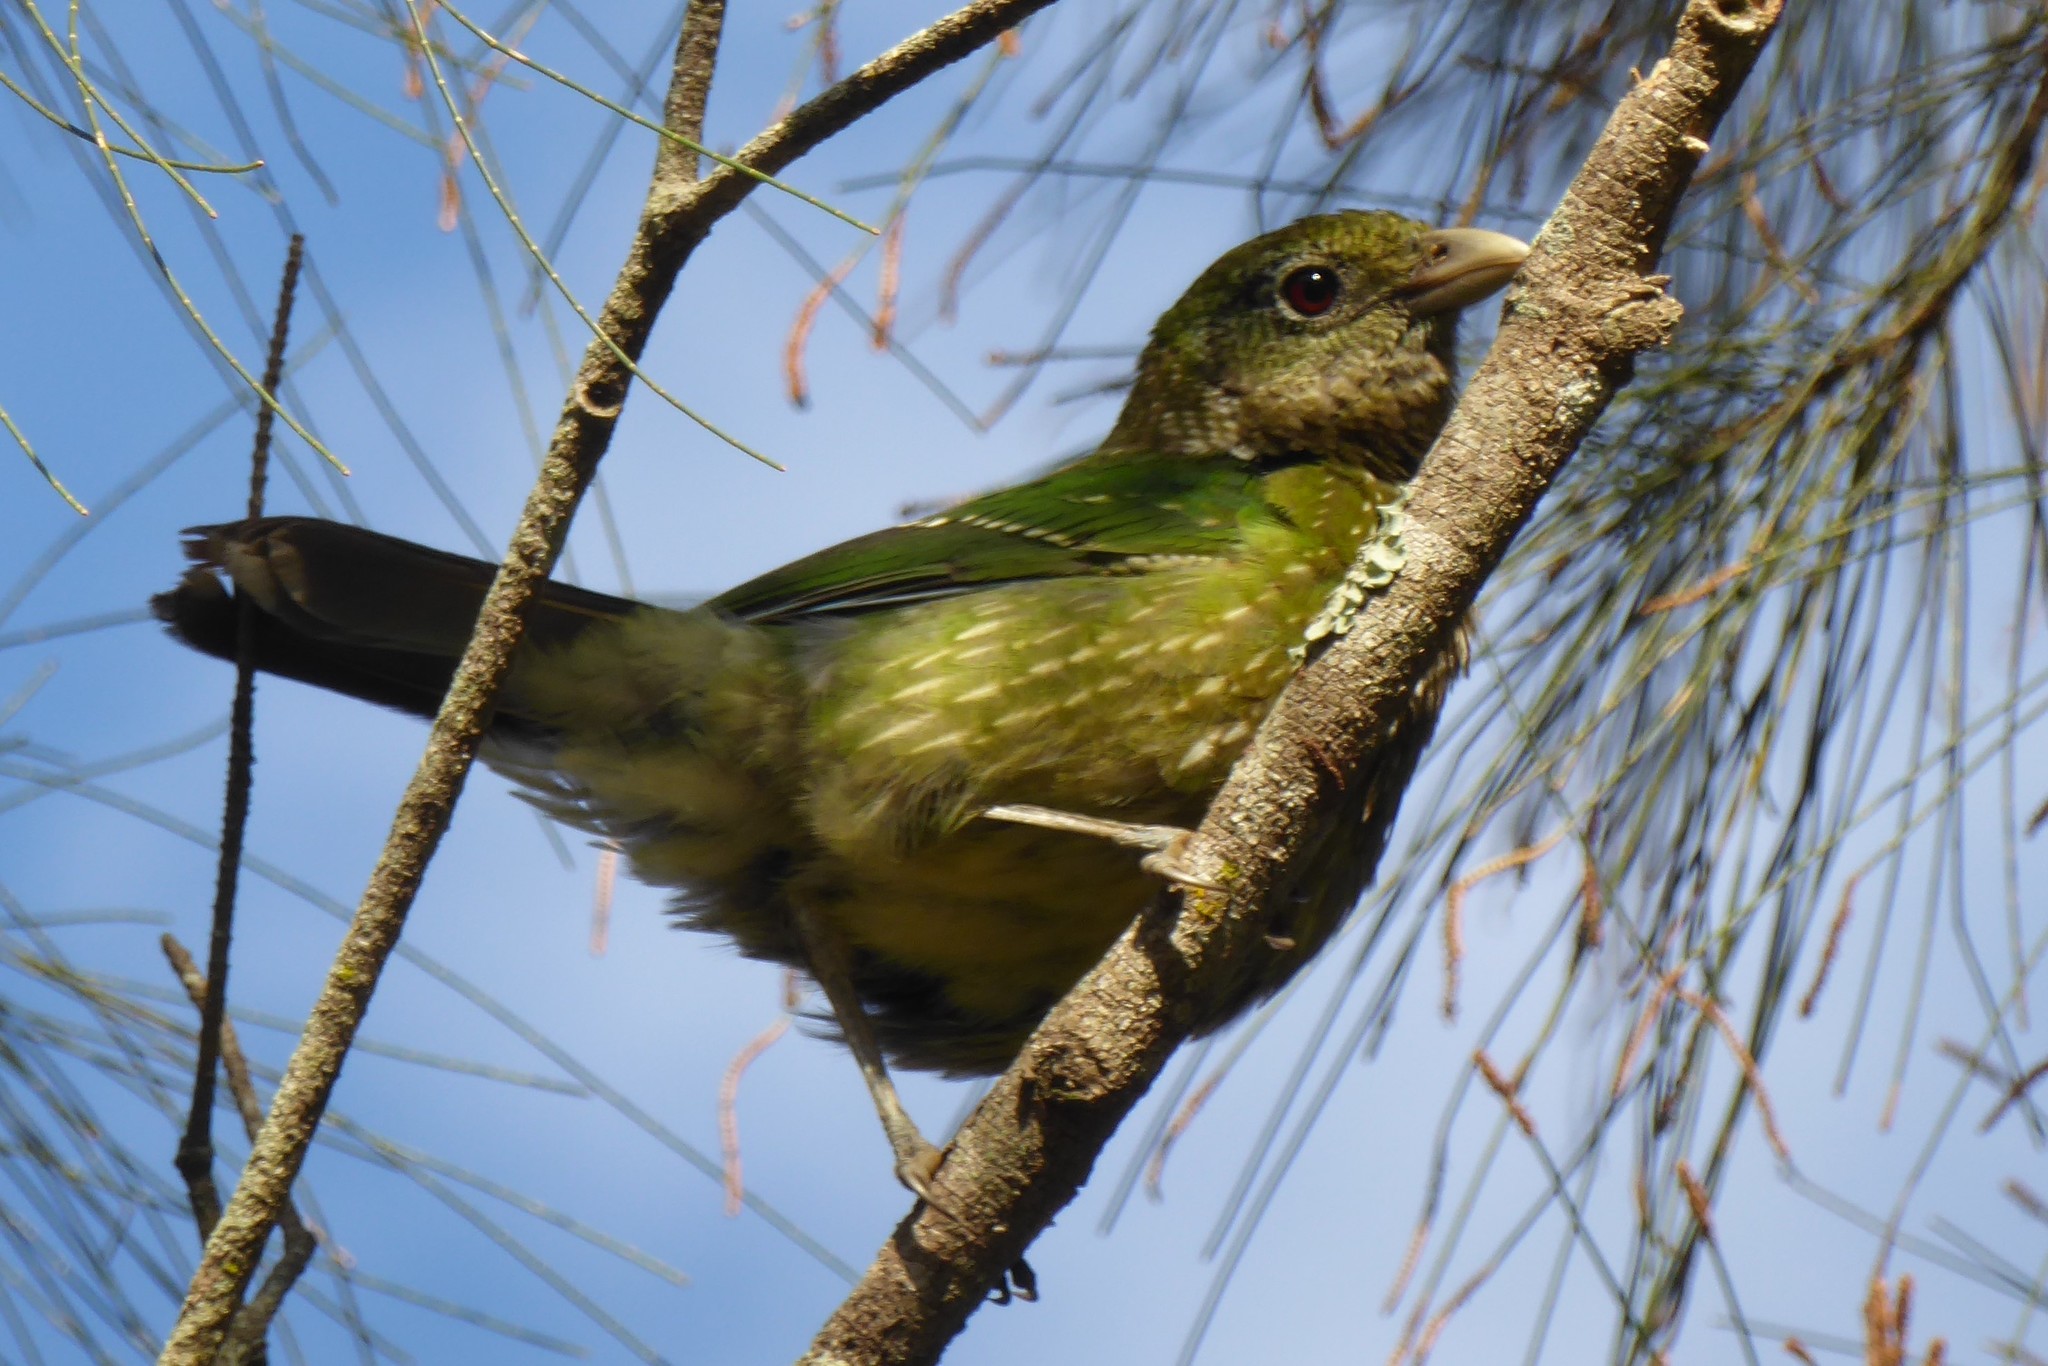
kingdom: Animalia
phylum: Chordata
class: Aves
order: Passeriformes
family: Ptilonorhynchidae
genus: Ailuroedus
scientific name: Ailuroedus crassirostris
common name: Green catbird
